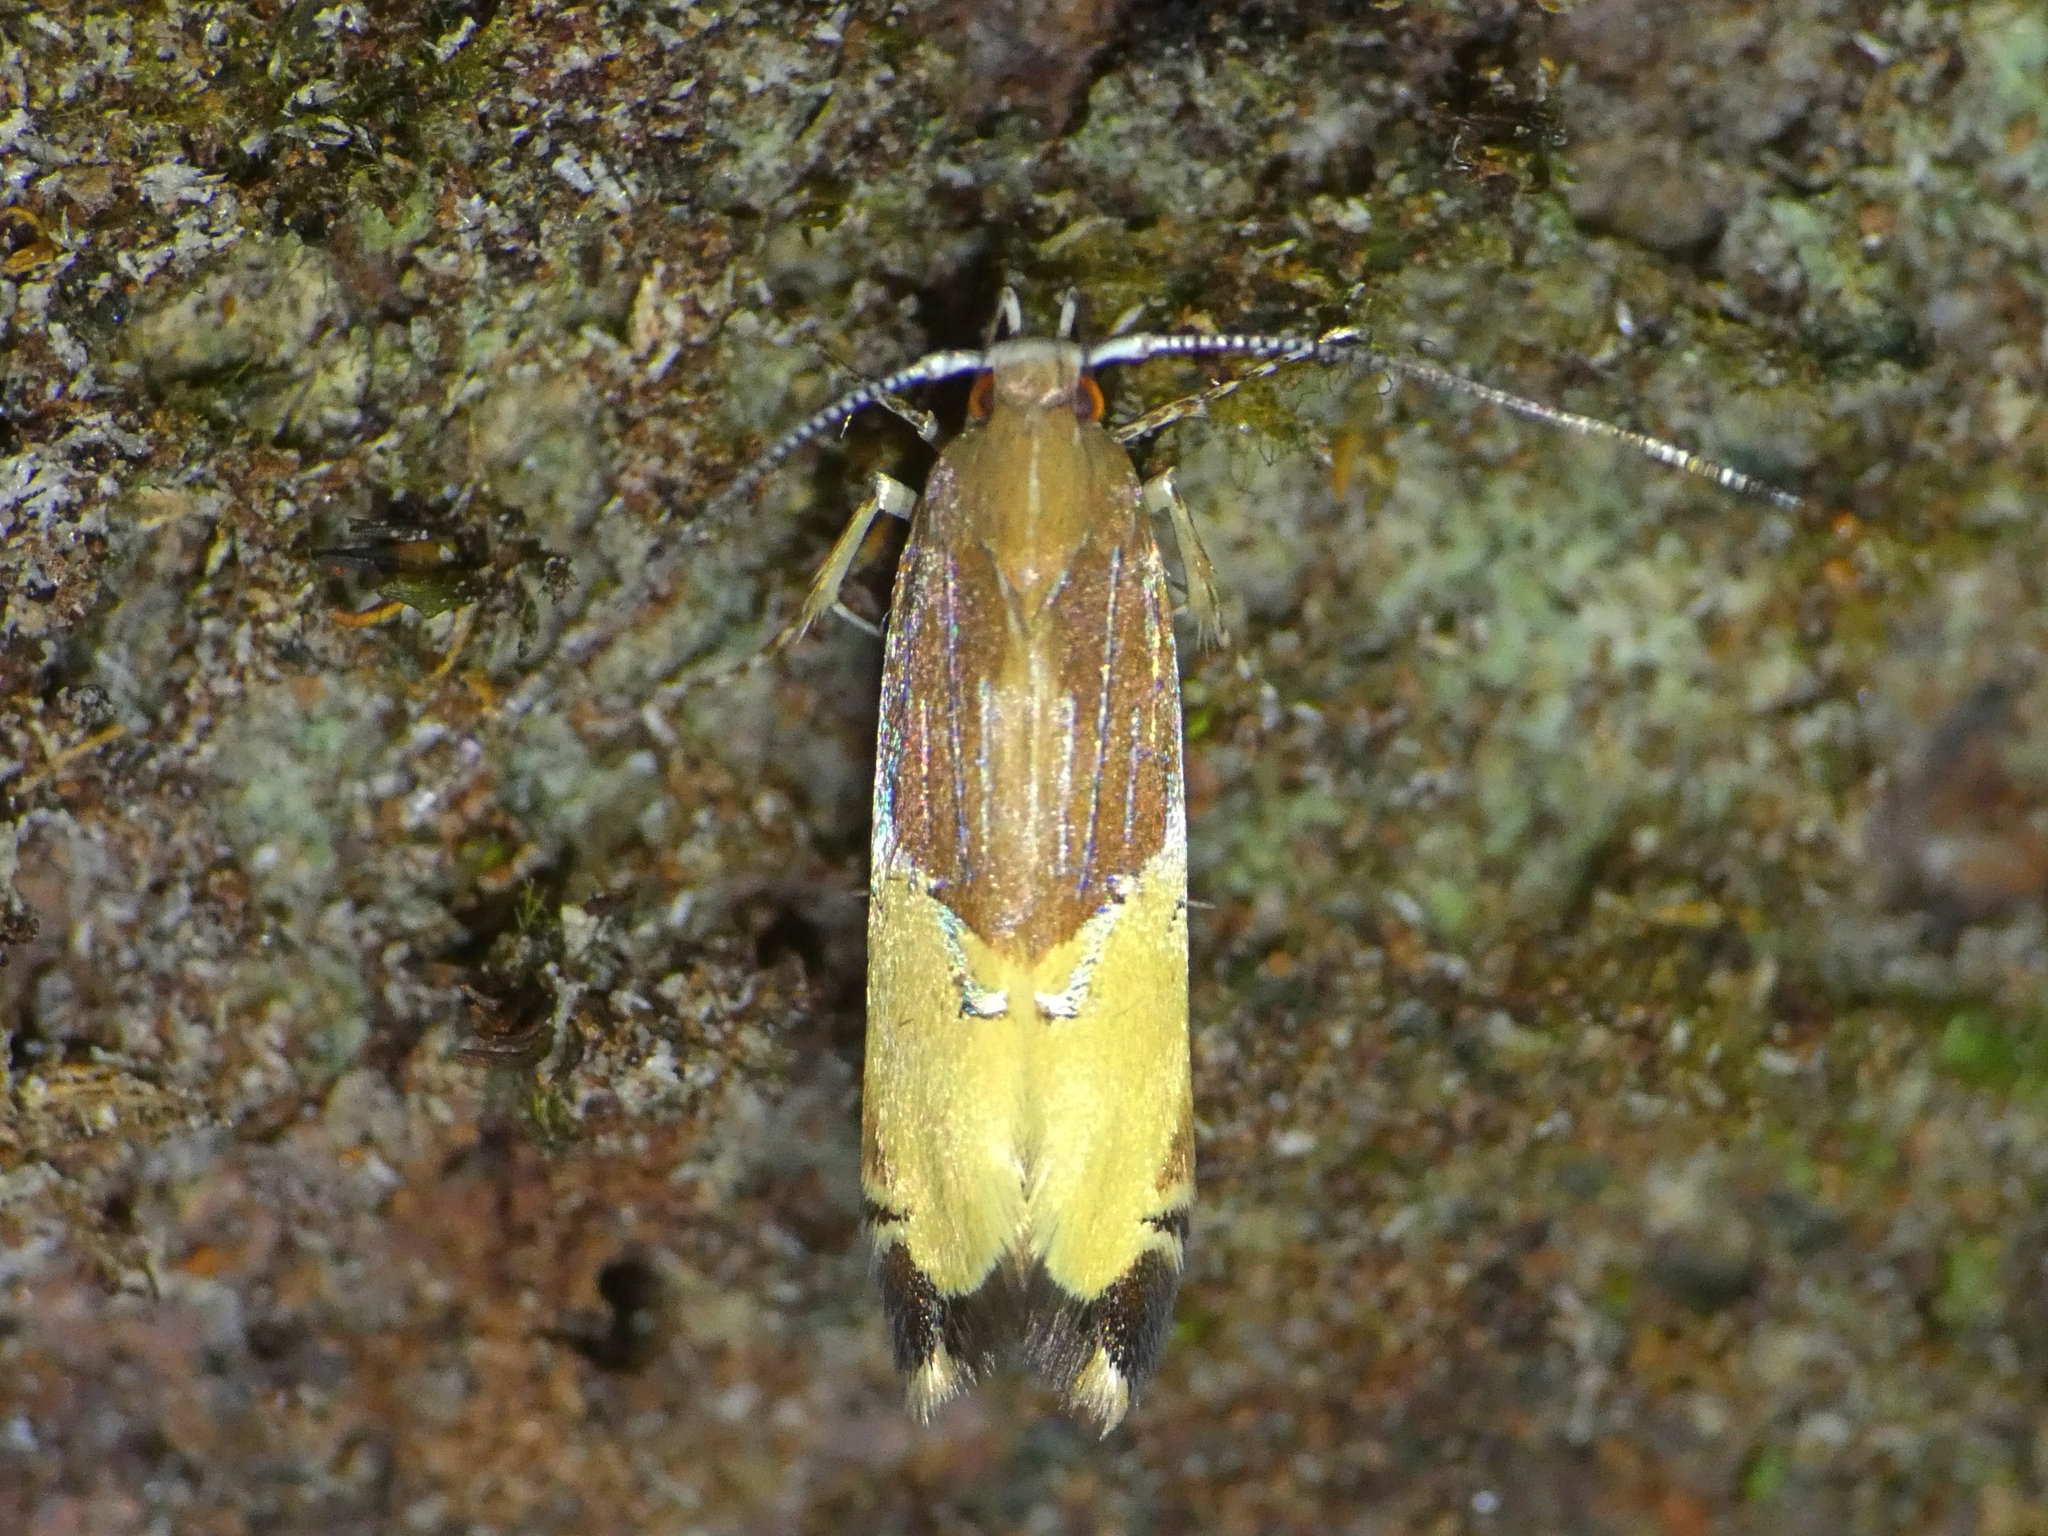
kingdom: Animalia
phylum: Arthropoda
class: Insecta
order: Lepidoptera
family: Cosmopterigidae
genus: Labdia
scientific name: Labdia deliciosella
